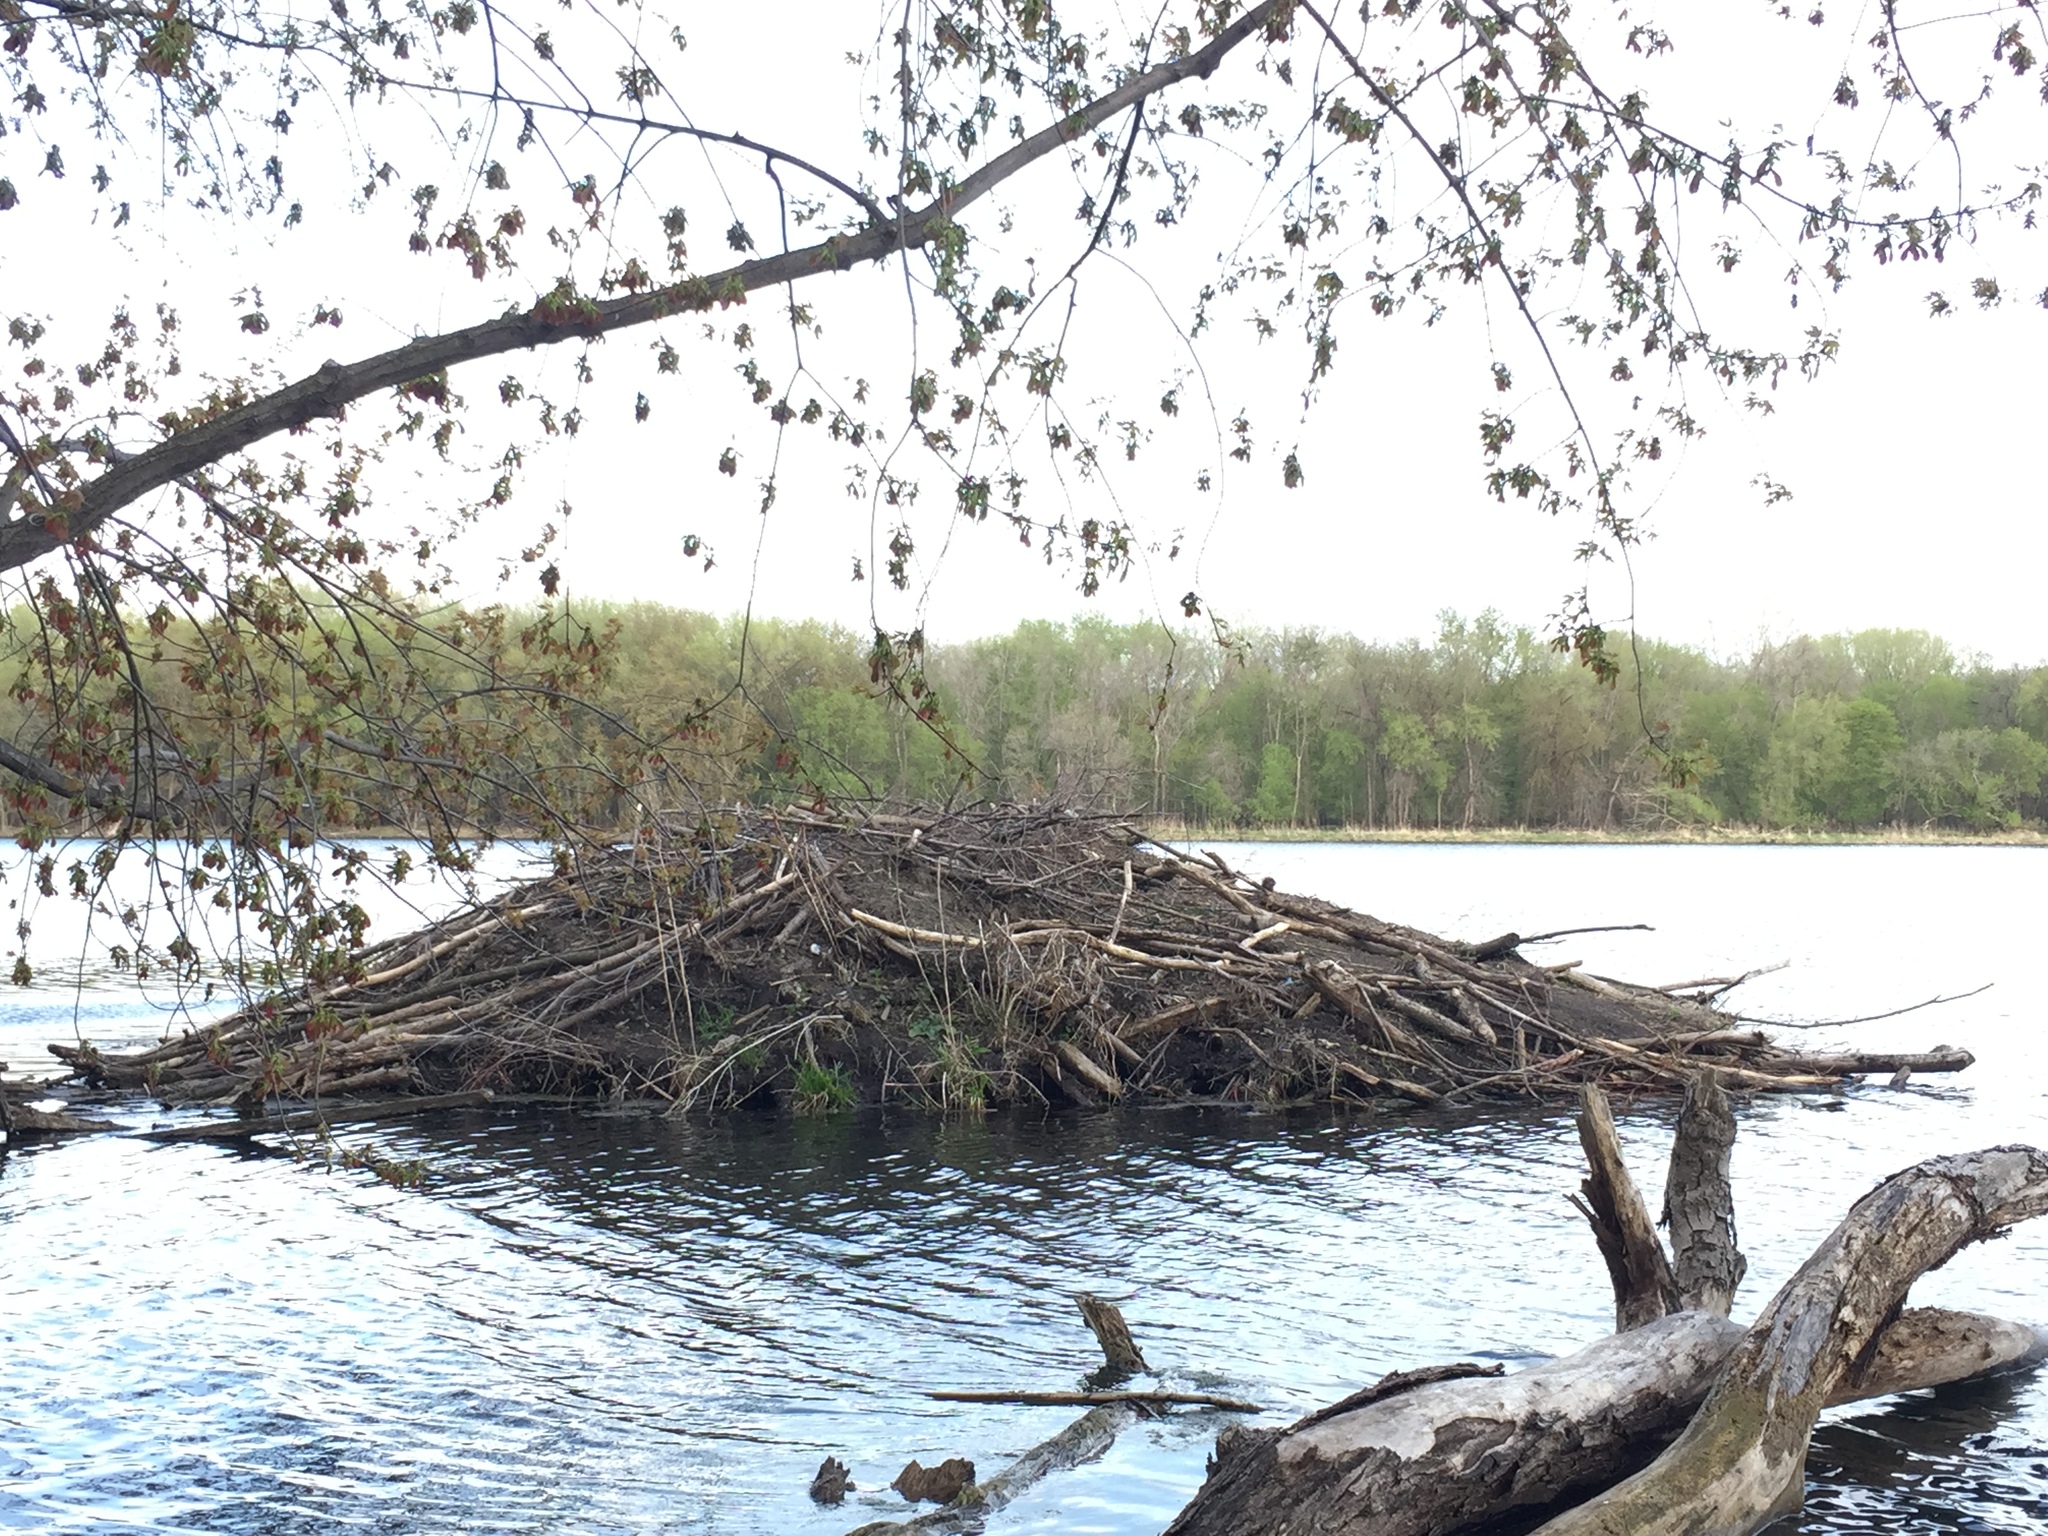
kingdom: Animalia
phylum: Chordata
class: Mammalia
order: Rodentia
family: Castoridae
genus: Castor
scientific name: Castor canadensis
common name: American beaver
